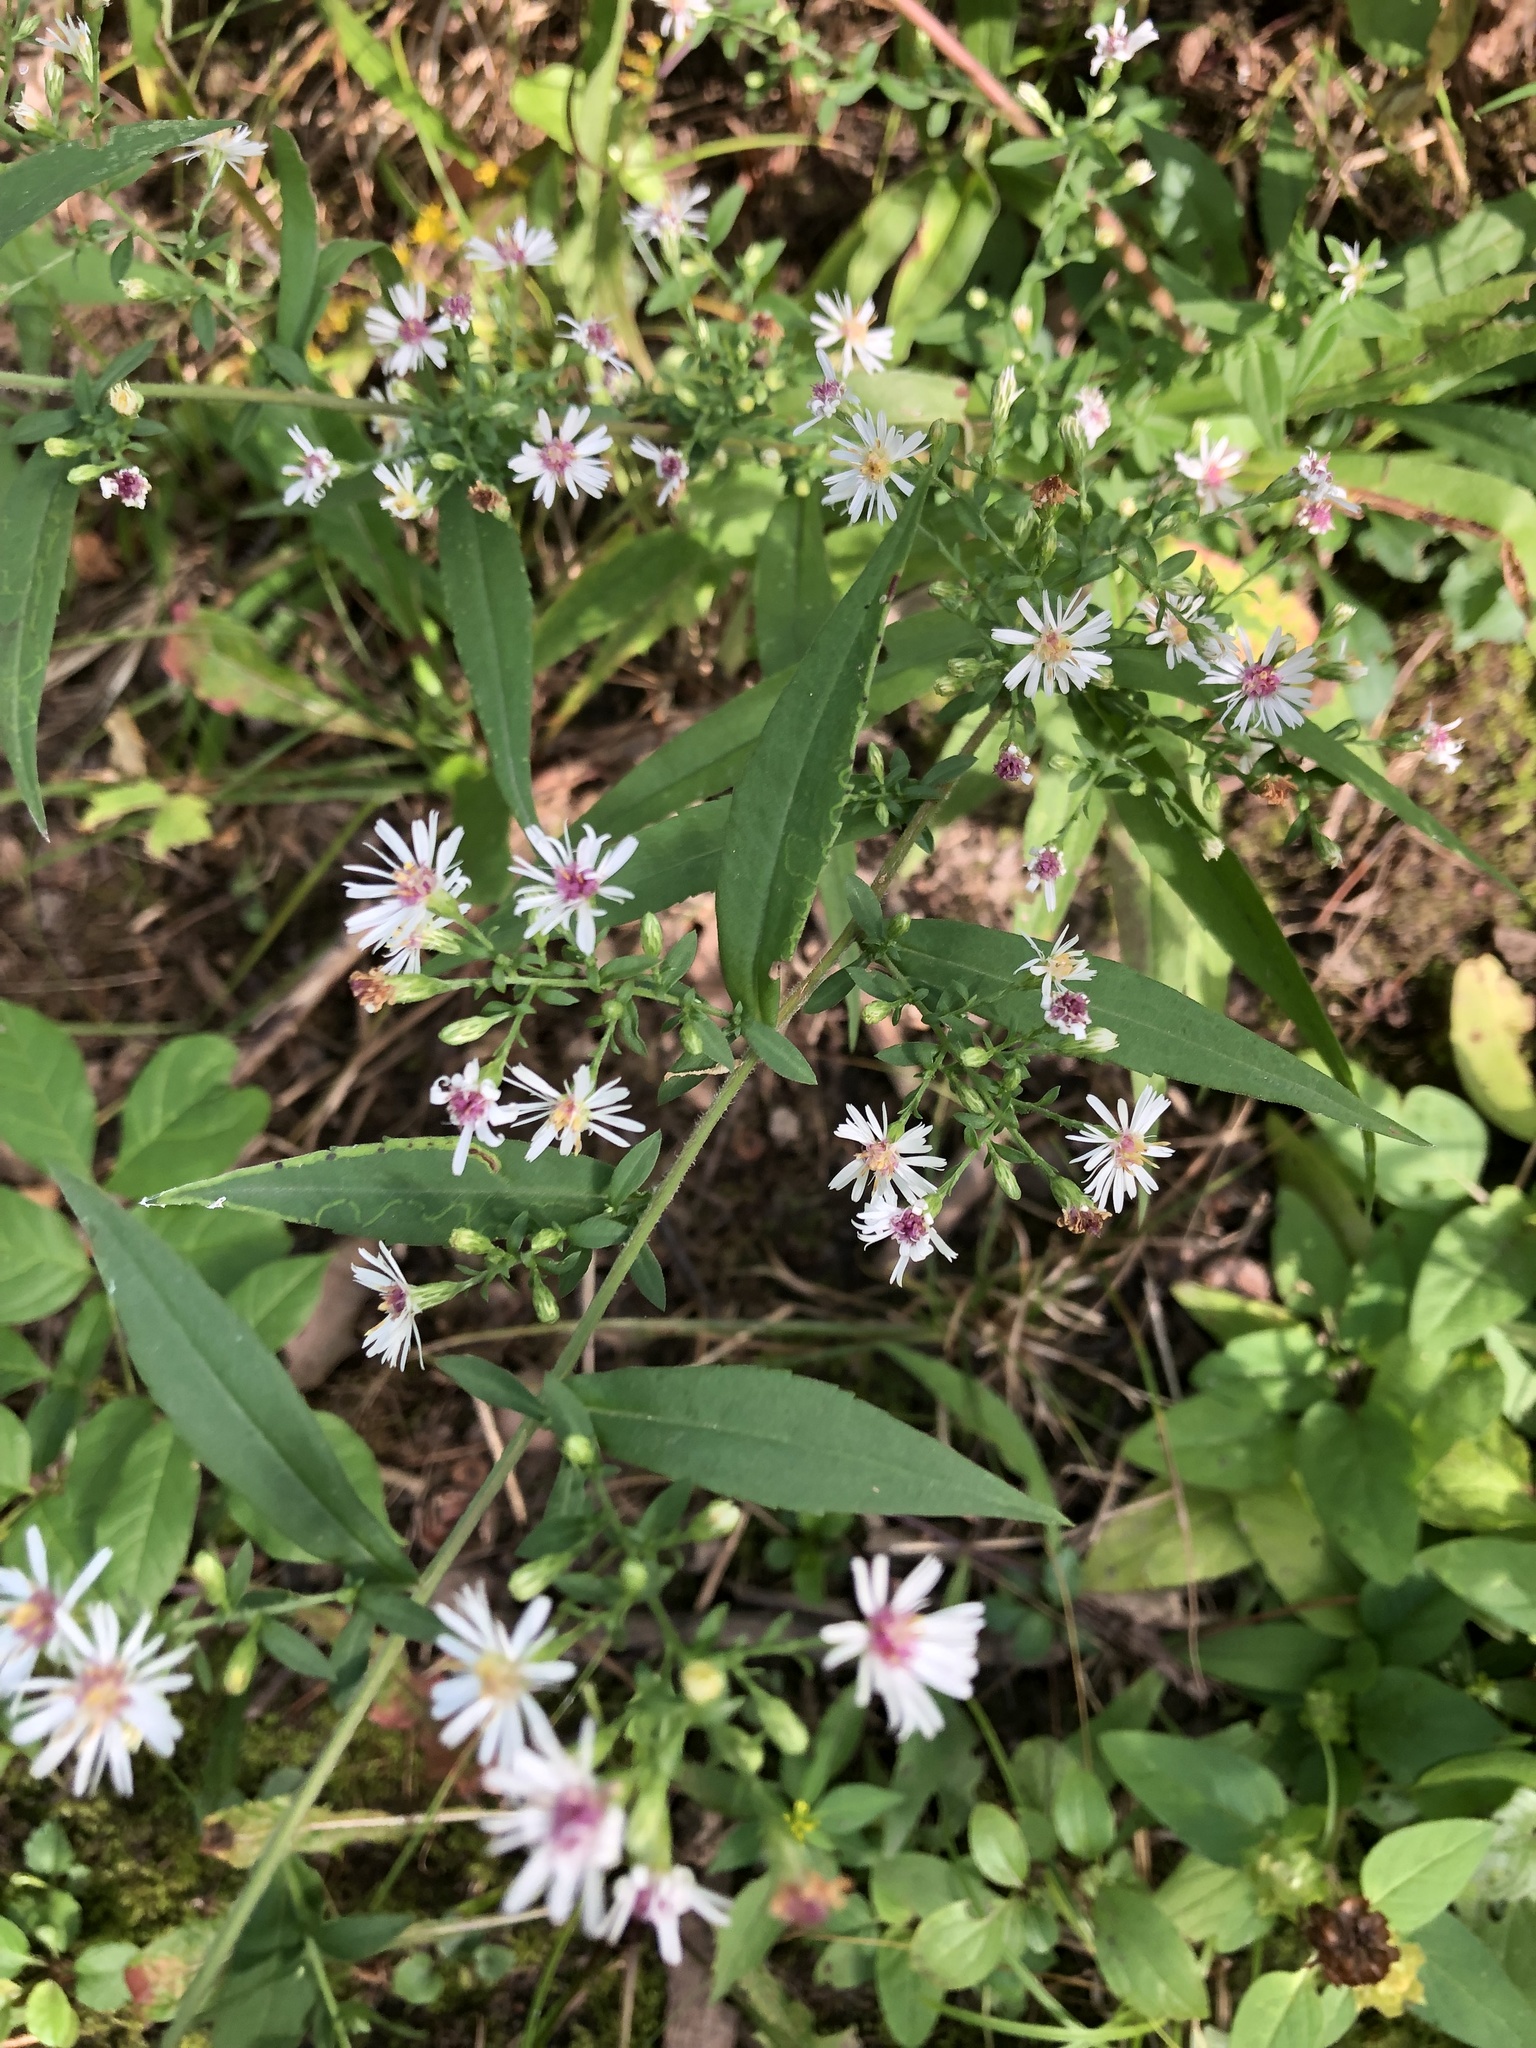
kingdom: Plantae
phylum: Tracheophyta
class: Magnoliopsida
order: Asterales
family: Asteraceae
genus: Symphyotrichum
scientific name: Symphyotrichum lateriflorum
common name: Calico aster
